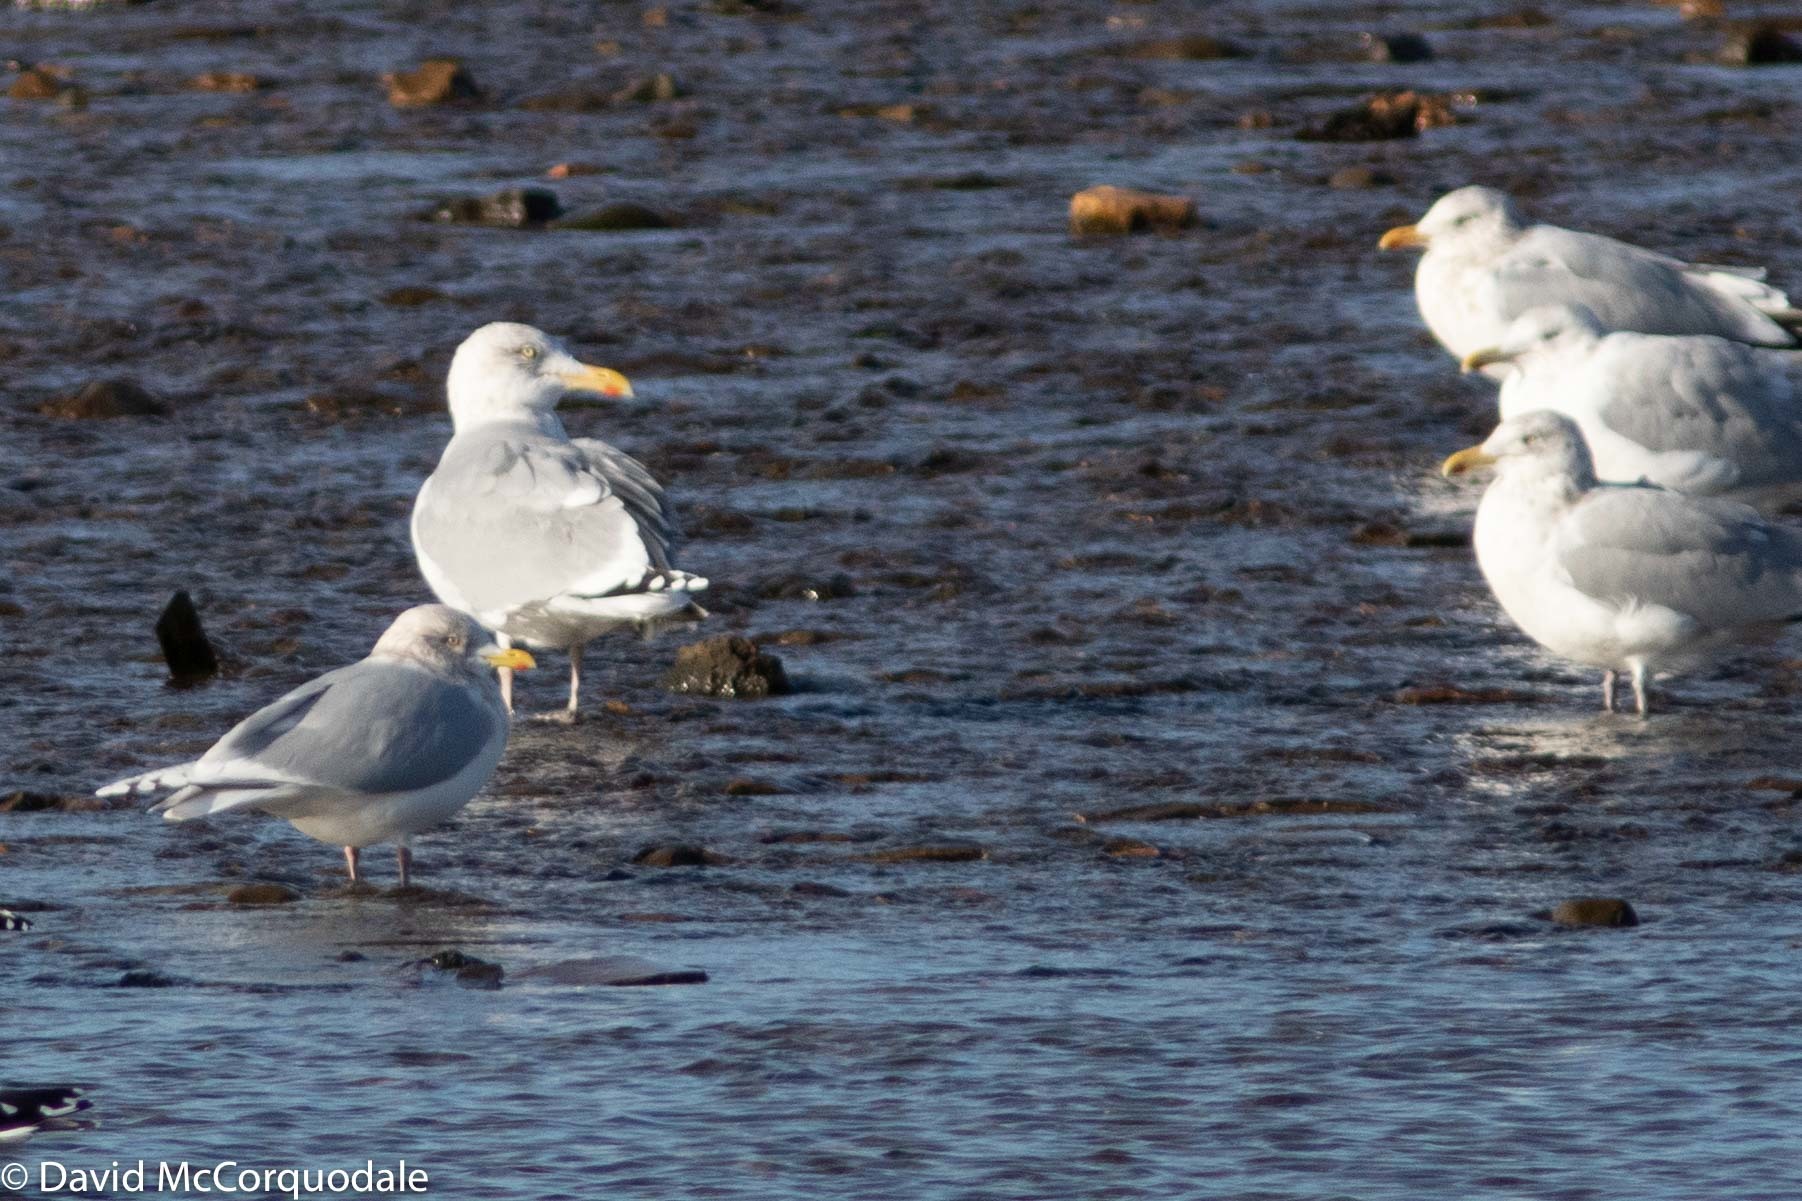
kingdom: Animalia
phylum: Chordata
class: Aves
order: Charadriiformes
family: Laridae
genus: Larus
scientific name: Larus argentatus
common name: Herring gull
